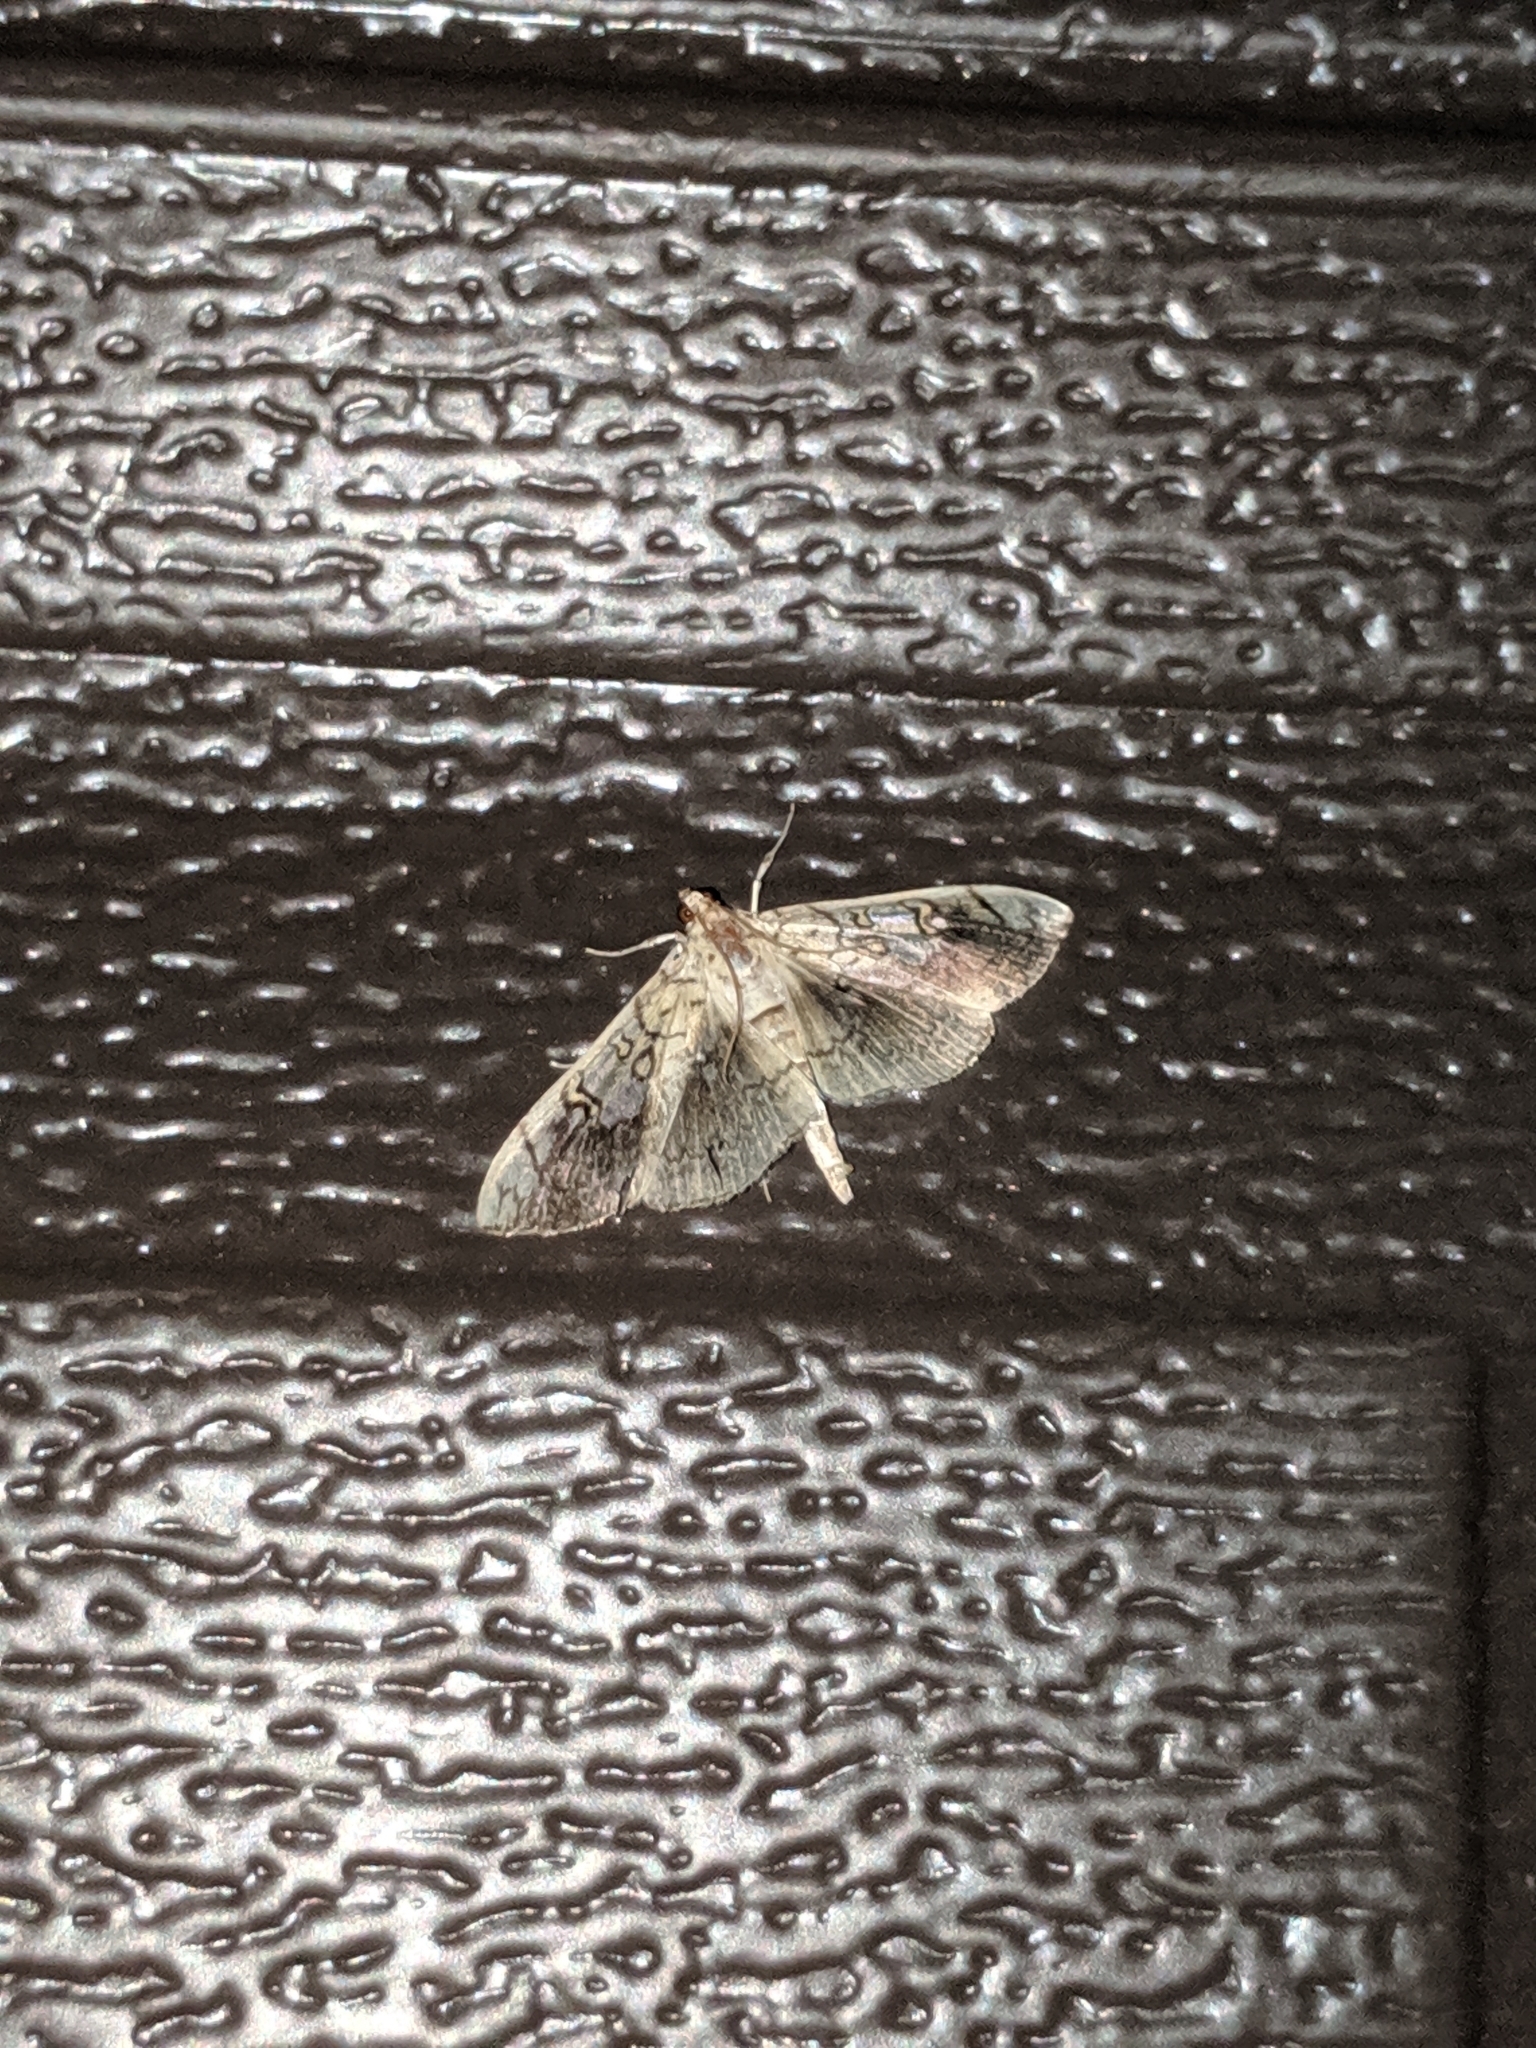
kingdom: Animalia
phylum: Arthropoda
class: Insecta
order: Lepidoptera
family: Crambidae
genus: Pantographa
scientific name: Pantographa limata
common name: Basswood leafroller moth
